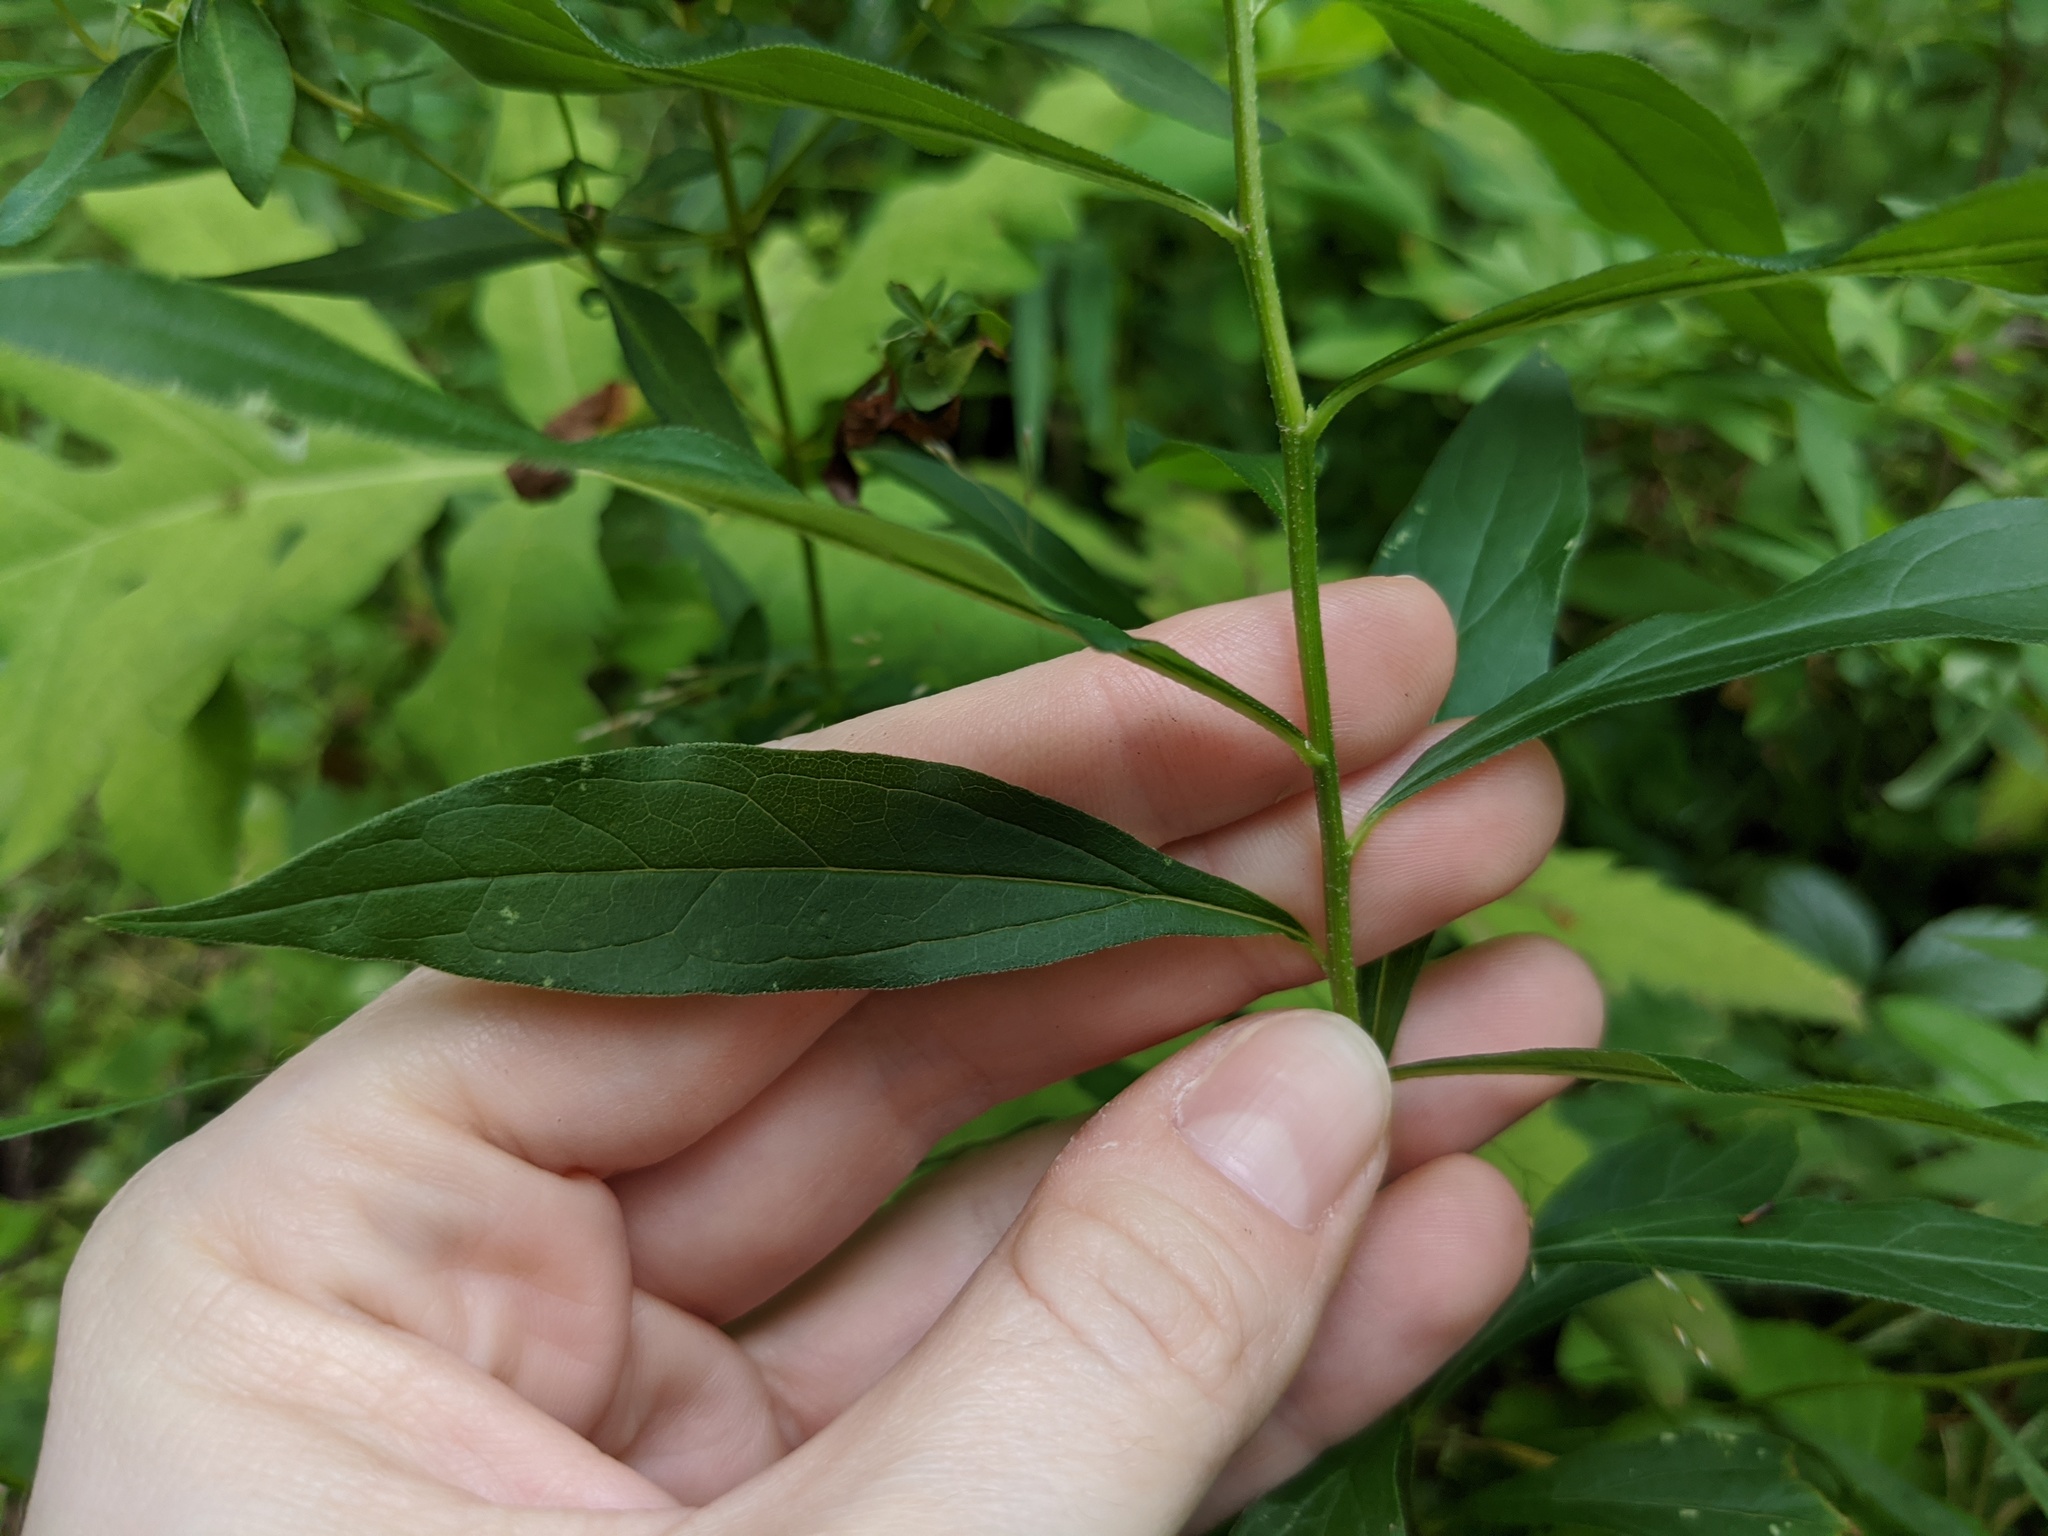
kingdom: Plantae
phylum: Tracheophyta
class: Magnoliopsida
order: Asterales
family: Asteraceae
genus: Doellingeria
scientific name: Doellingeria umbellata
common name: Flat-top white aster
